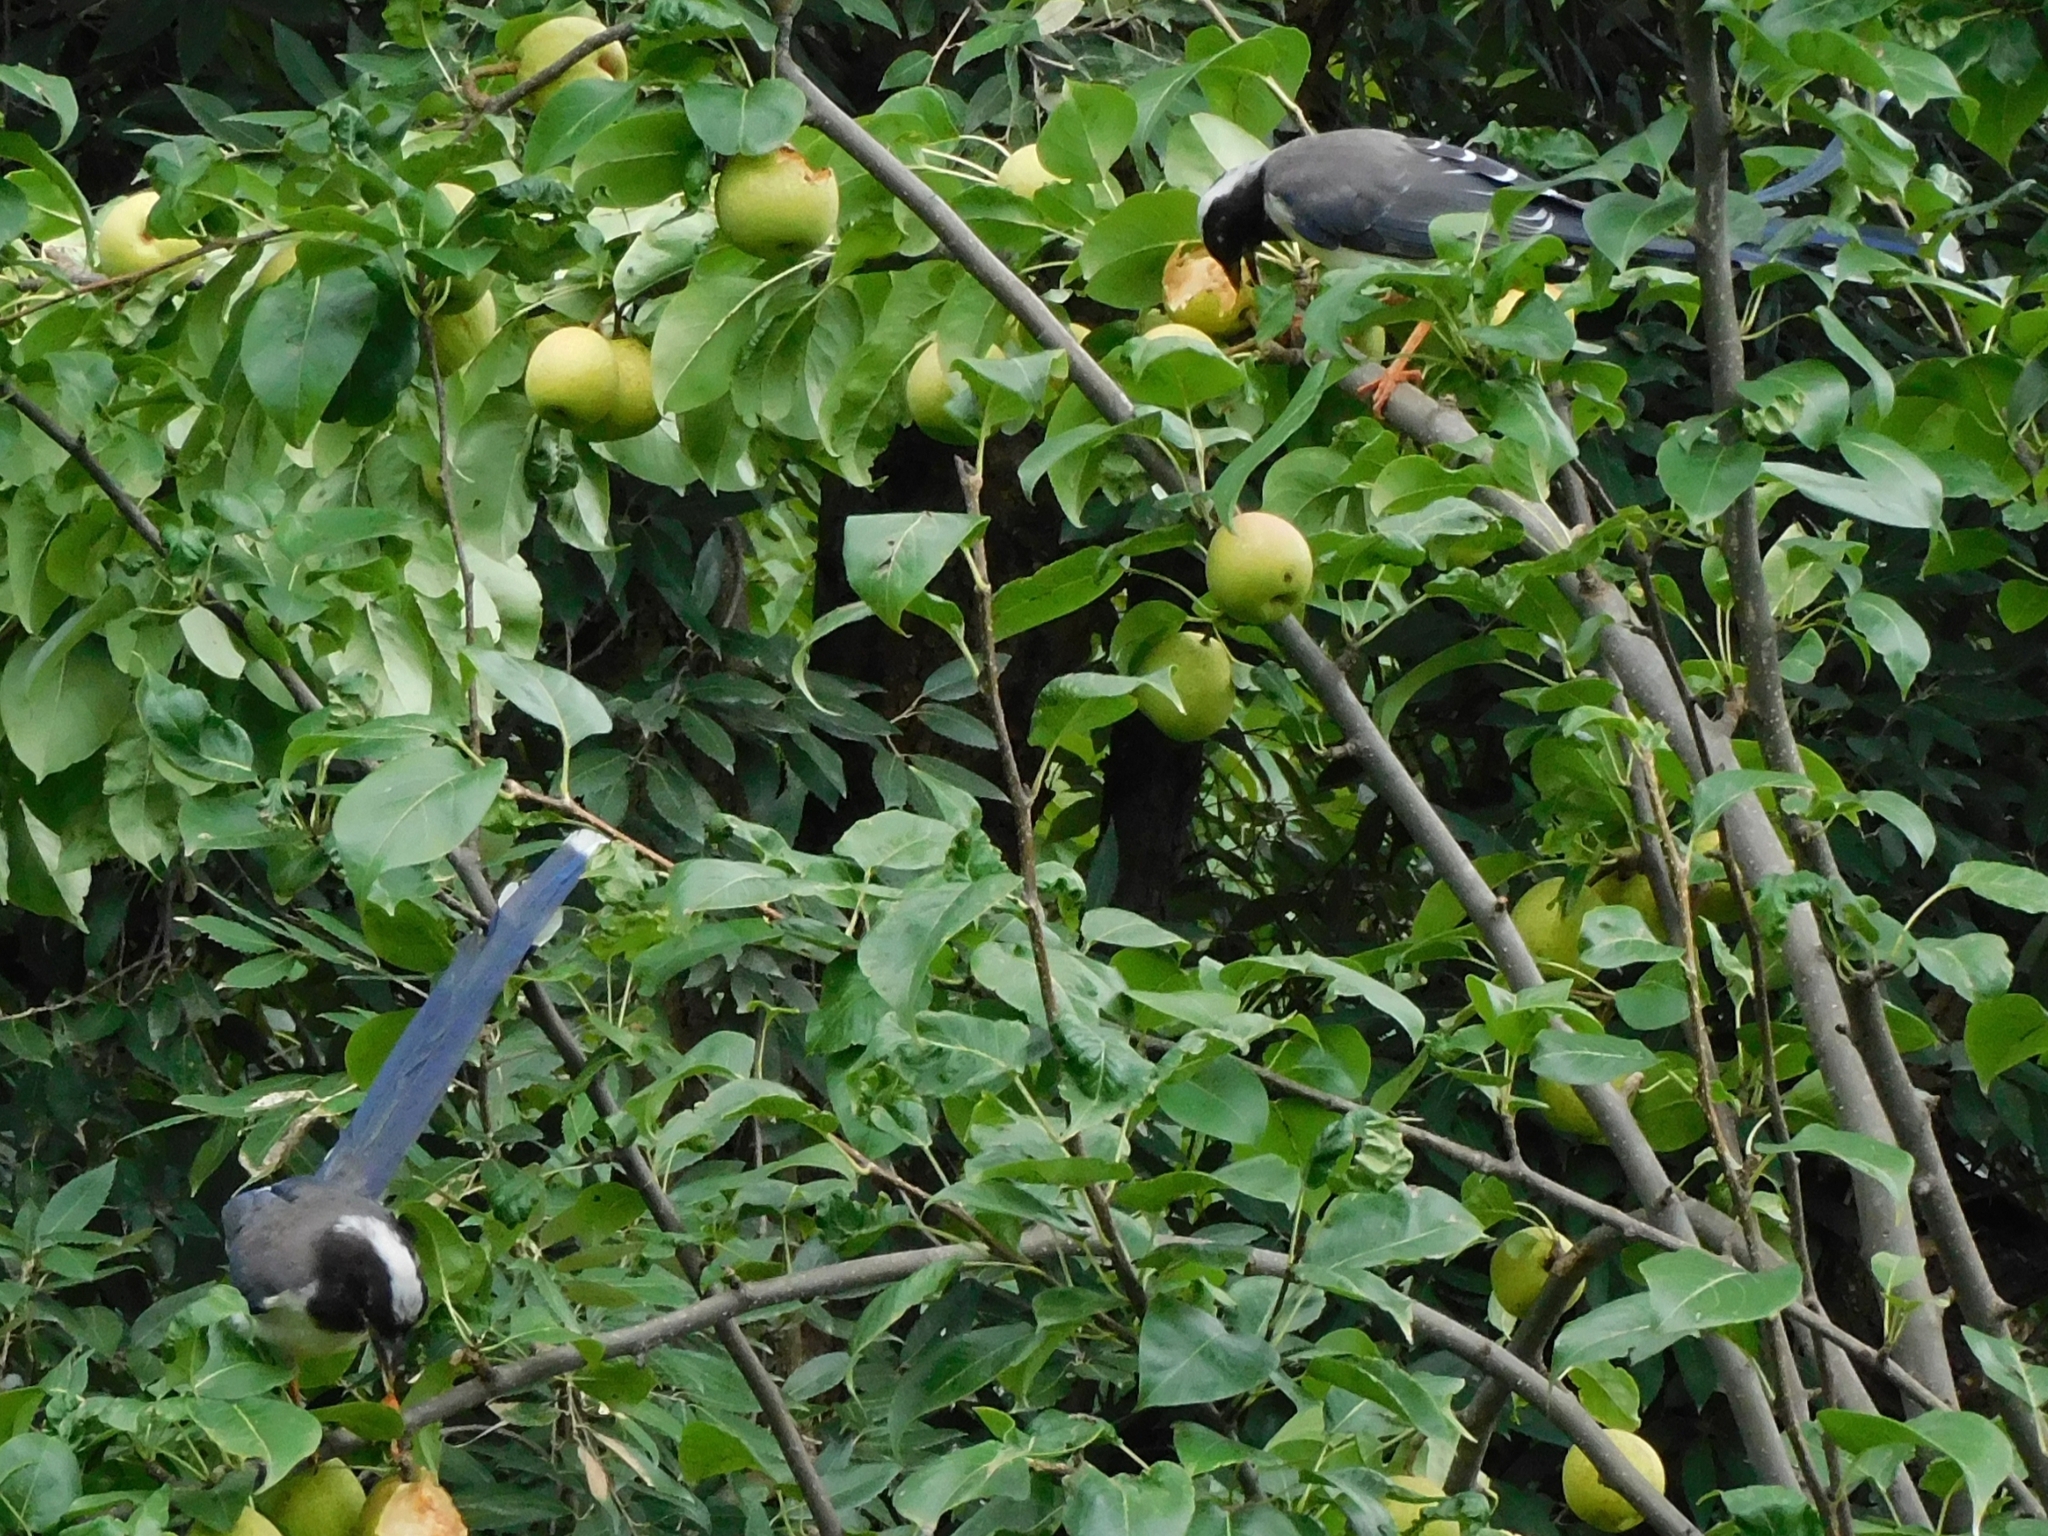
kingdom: Animalia
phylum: Chordata
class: Aves
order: Passeriformes
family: Corvidae
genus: Urocissa
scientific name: Urocissa erythroryncha
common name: Red-billed blue magpie
